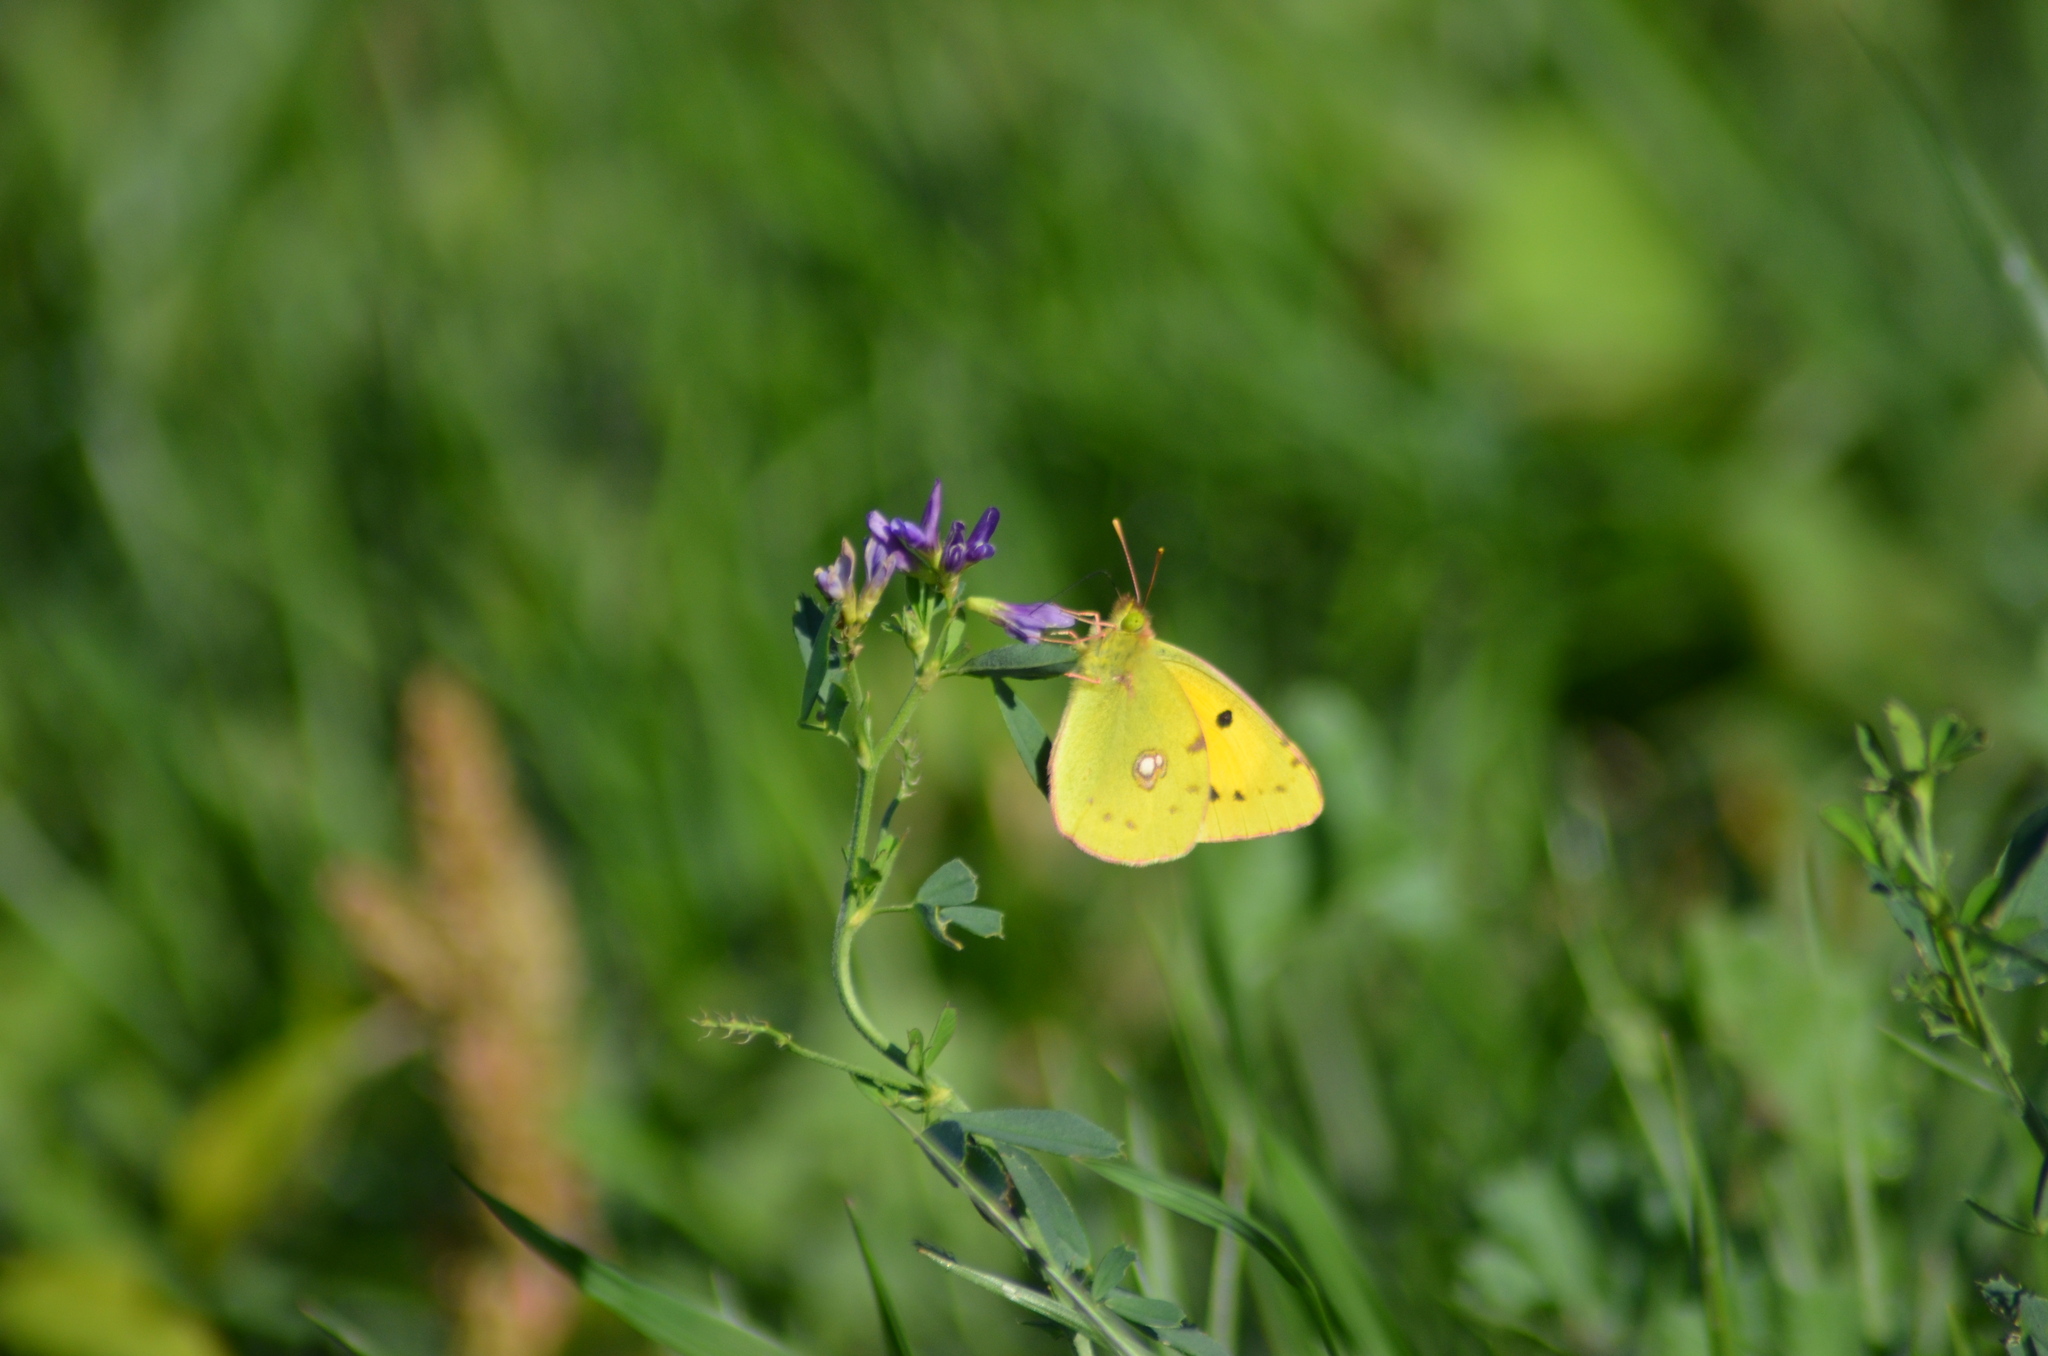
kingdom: Animalia
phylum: Arthropoda
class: Insecta
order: Lepidoptera
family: Pieridae
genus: Colias
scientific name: Colias croceus
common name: Clouded yellow
